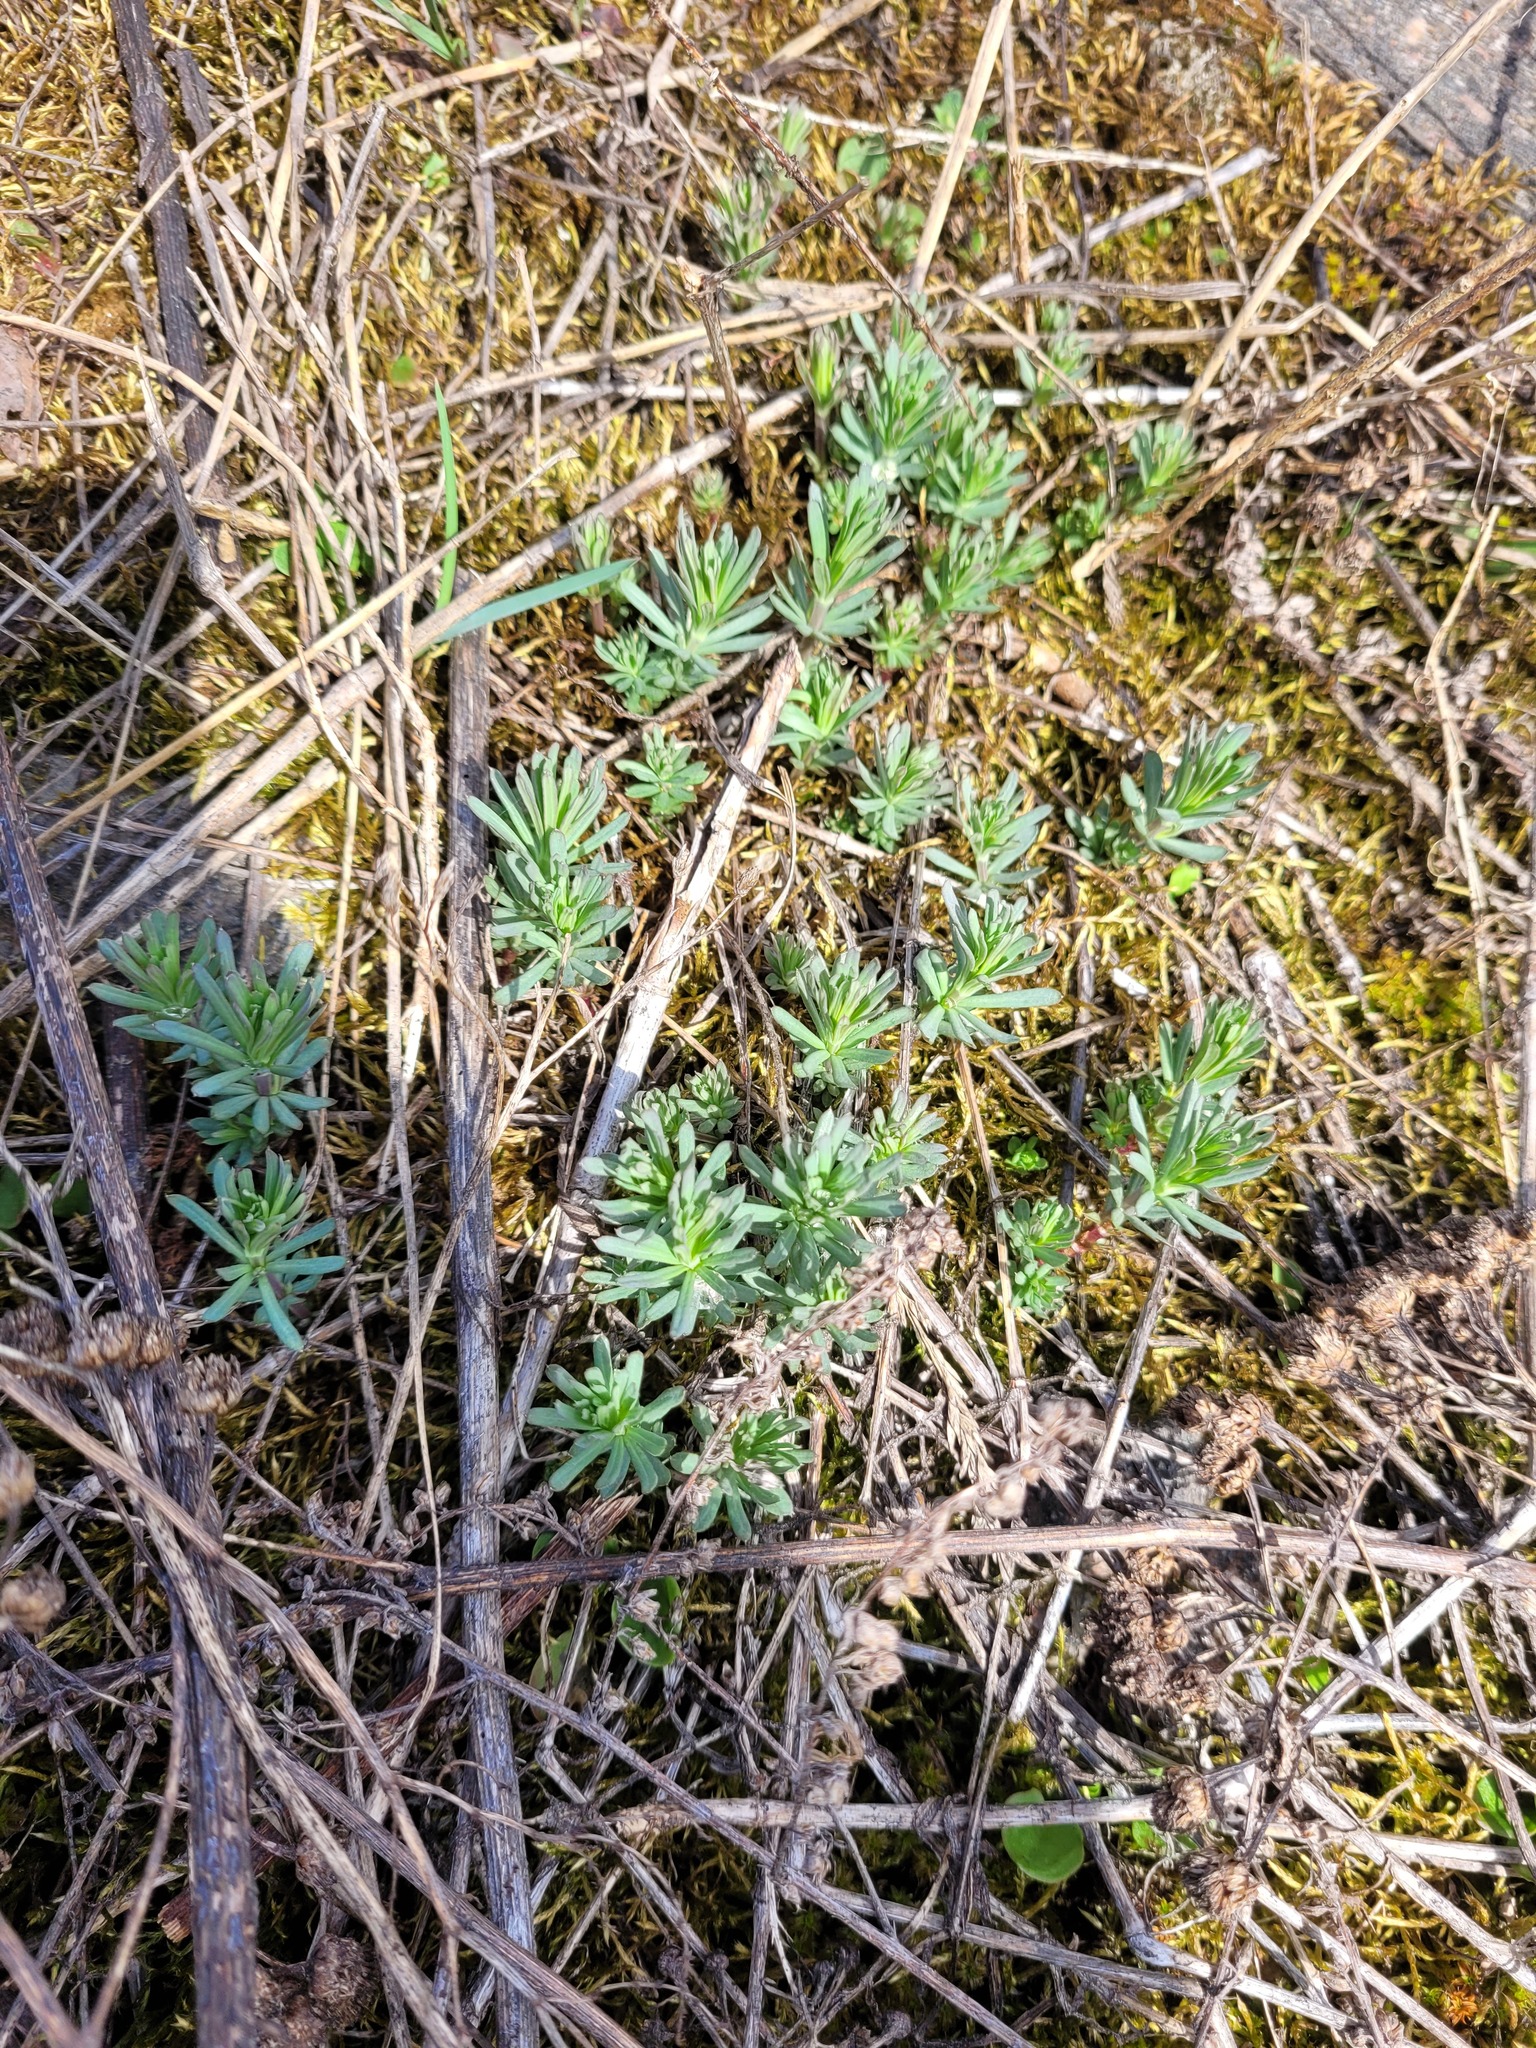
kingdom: Plantae
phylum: Tracheophyta
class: Magnoliopsida
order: Gentianales
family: Rubiaceae
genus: Galium
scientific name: Galium mollugo
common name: Hedge bedstraw
